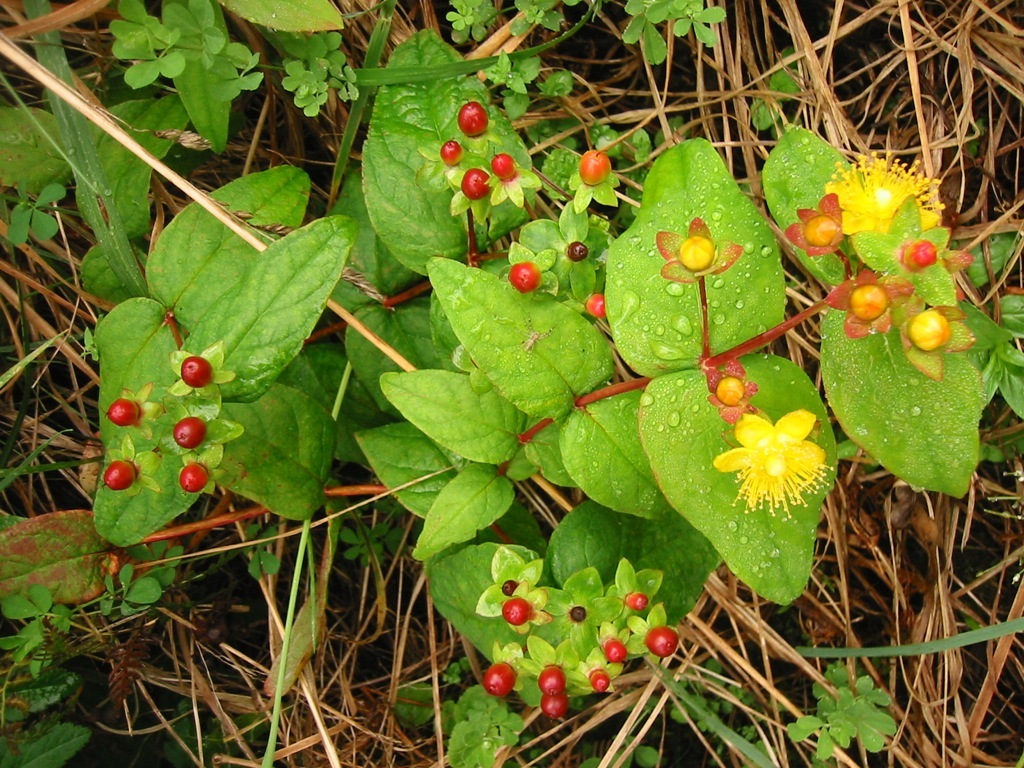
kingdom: Plantae
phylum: Tracheophyta
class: Magnoliopsida
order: Malpighiales
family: Hypericaceae
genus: Hypericum
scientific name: Hypericum androsaemum
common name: Sweet-amber
